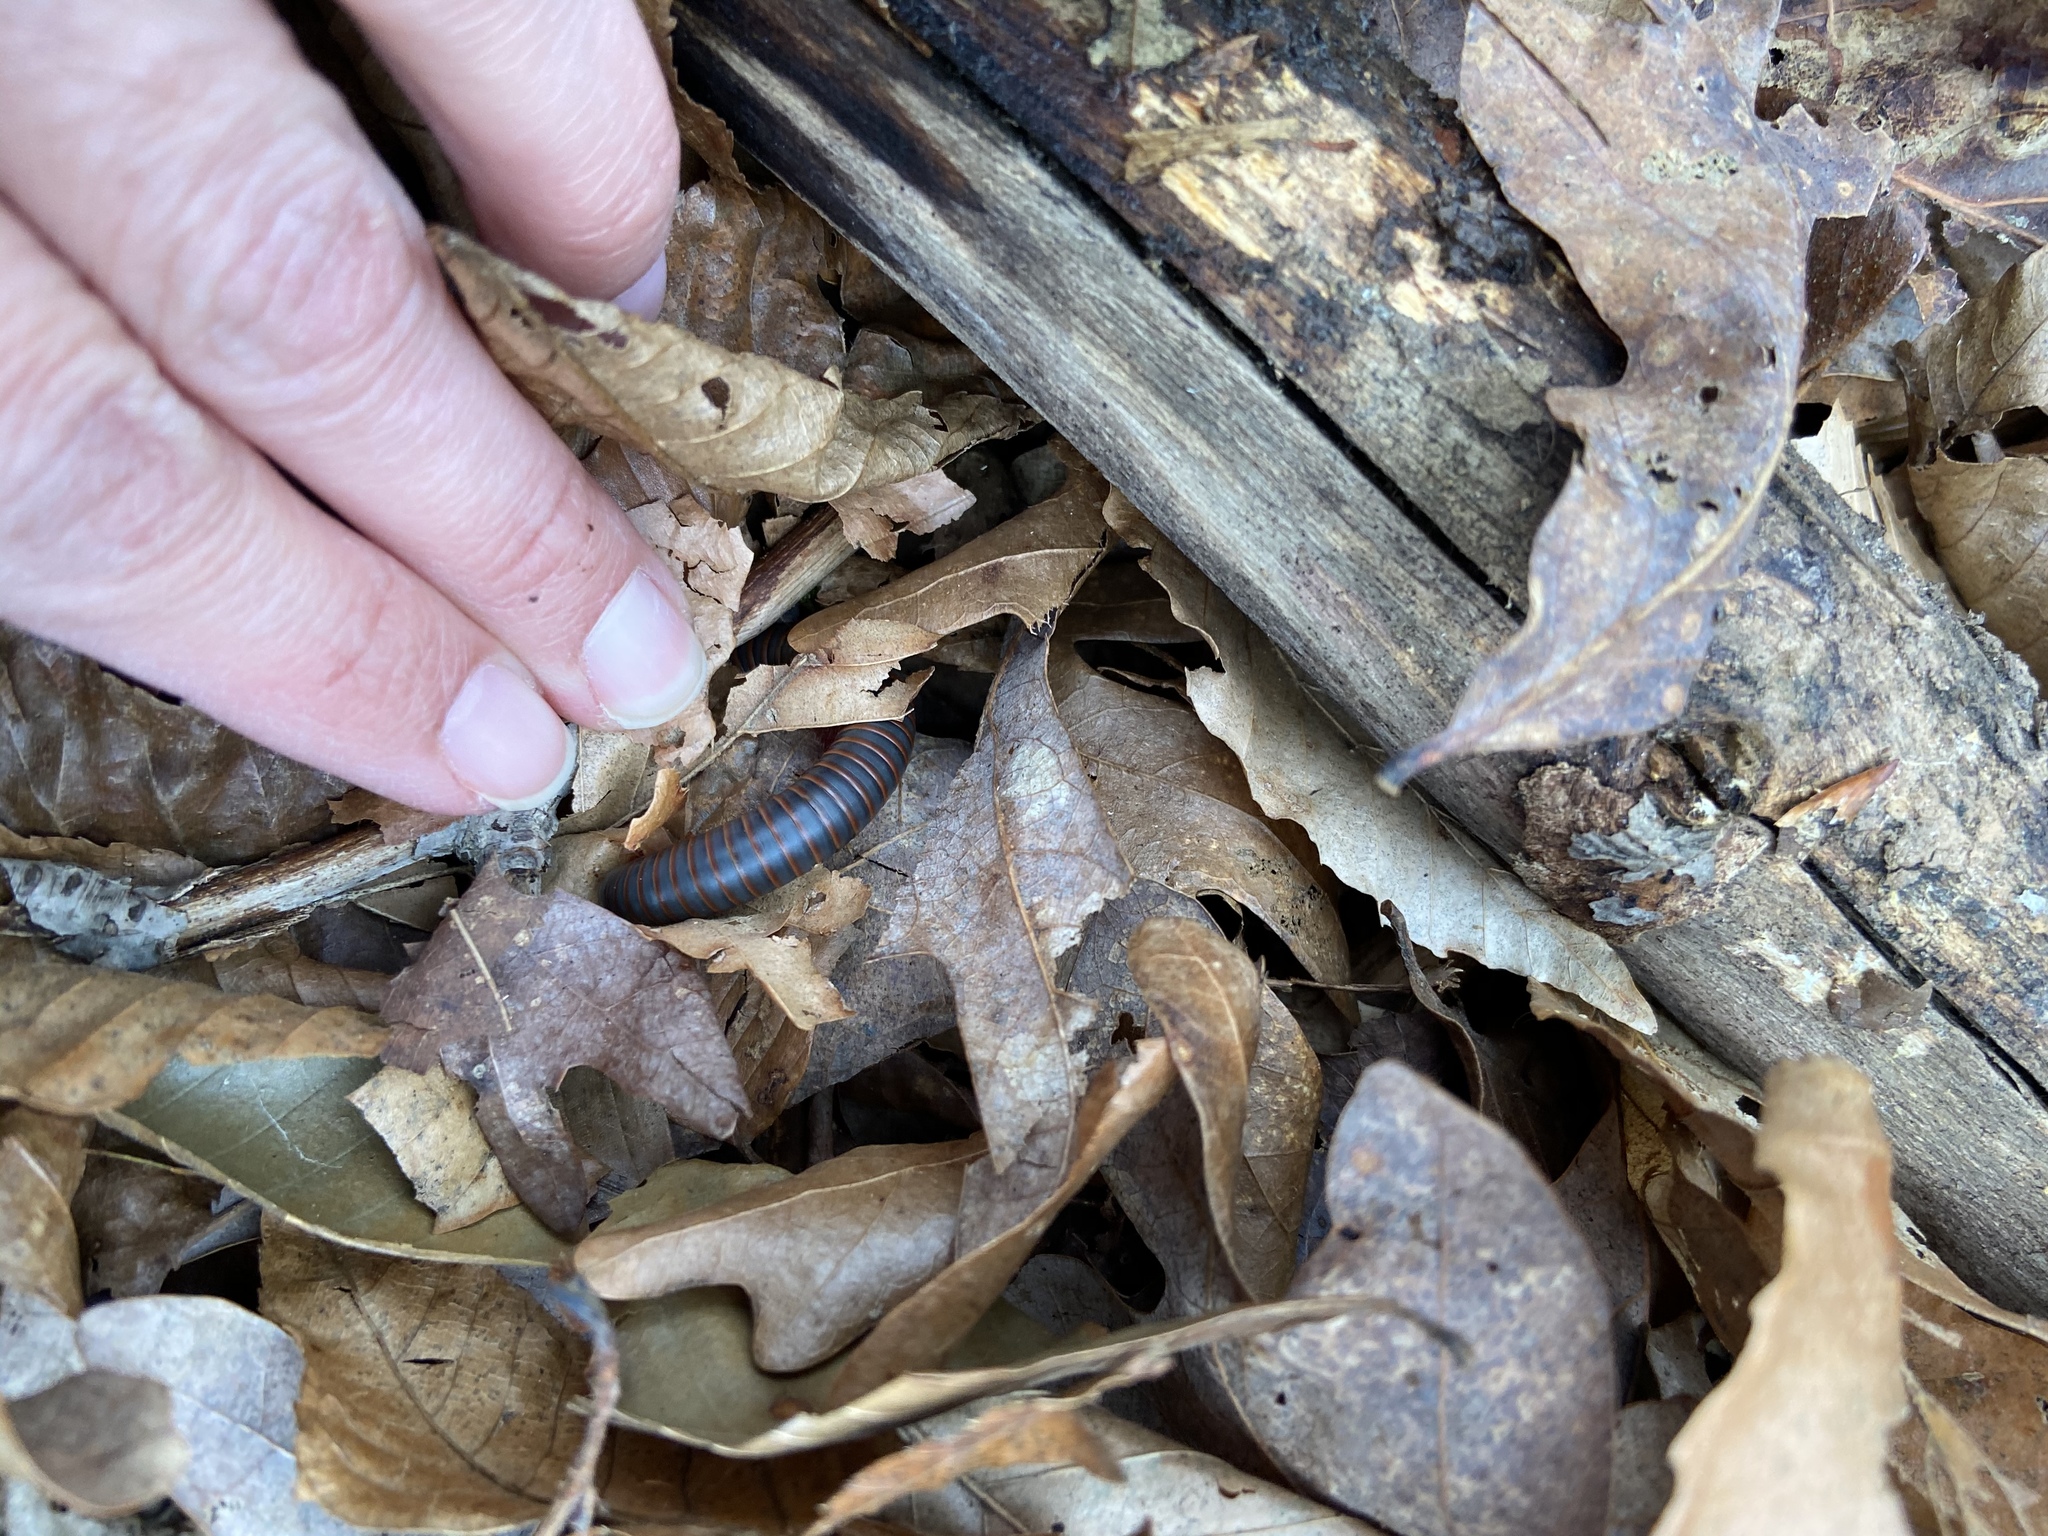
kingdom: Animalia
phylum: Arthropoda
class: Diplopoda
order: Spirobolida
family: Spirobolidae
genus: Narceus
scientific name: Narceus
